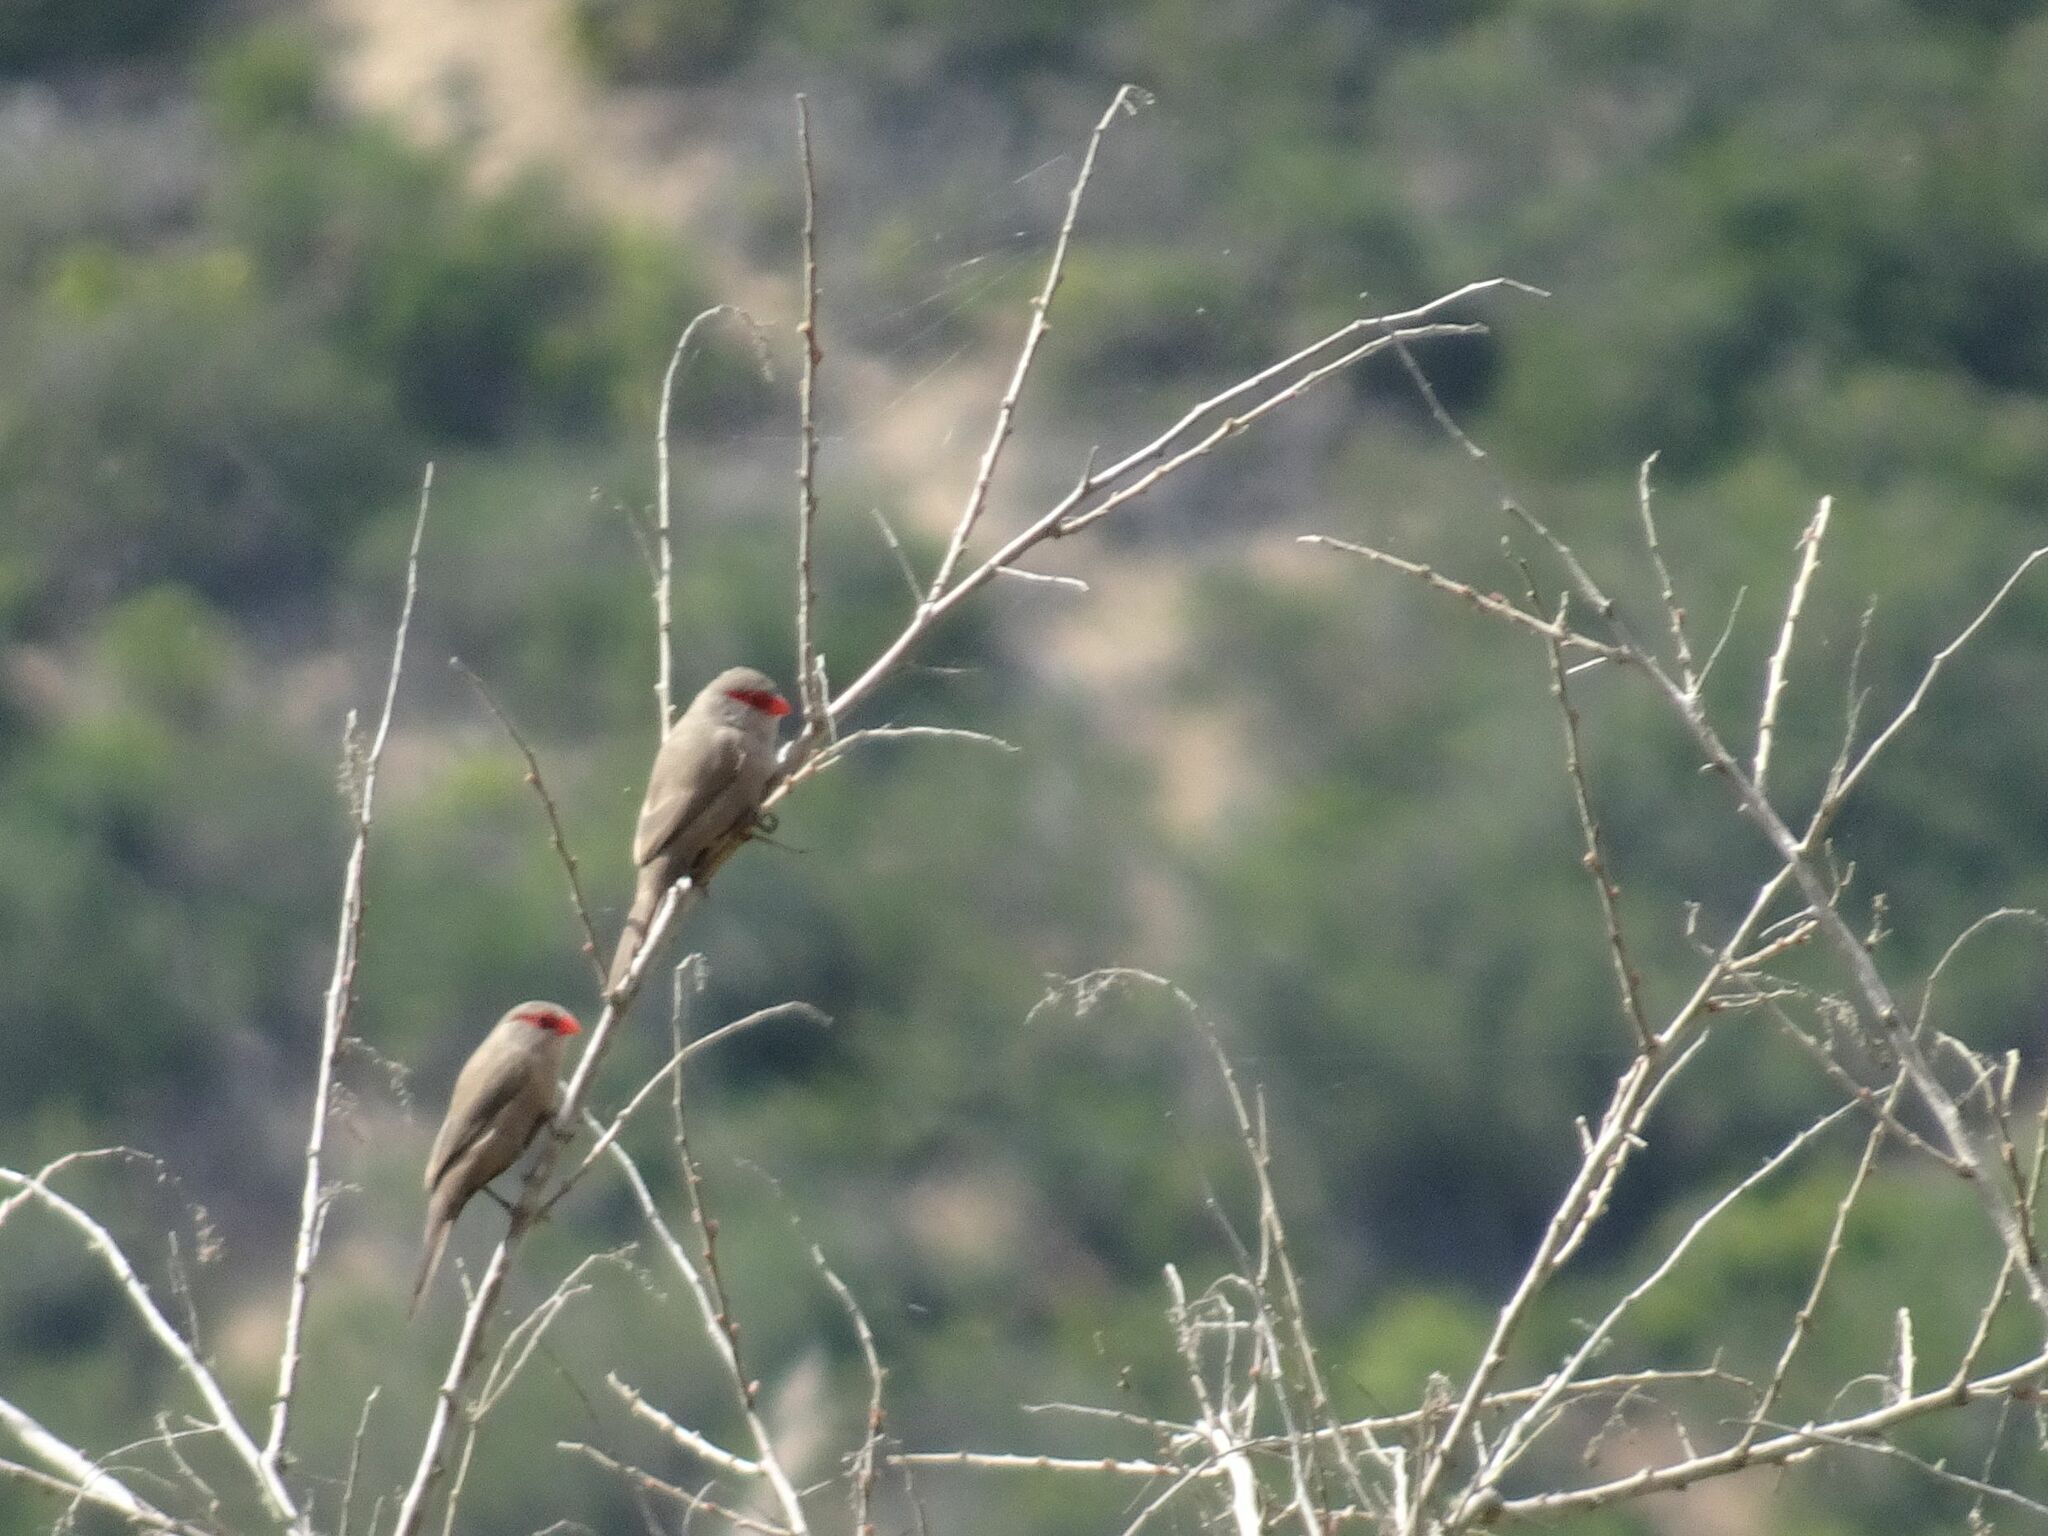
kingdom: Animalia
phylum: Chordata
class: Aves
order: Passeriformes
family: Estrildidae
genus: Estrilda
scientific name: Estrilda astrild
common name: Common waxbill
